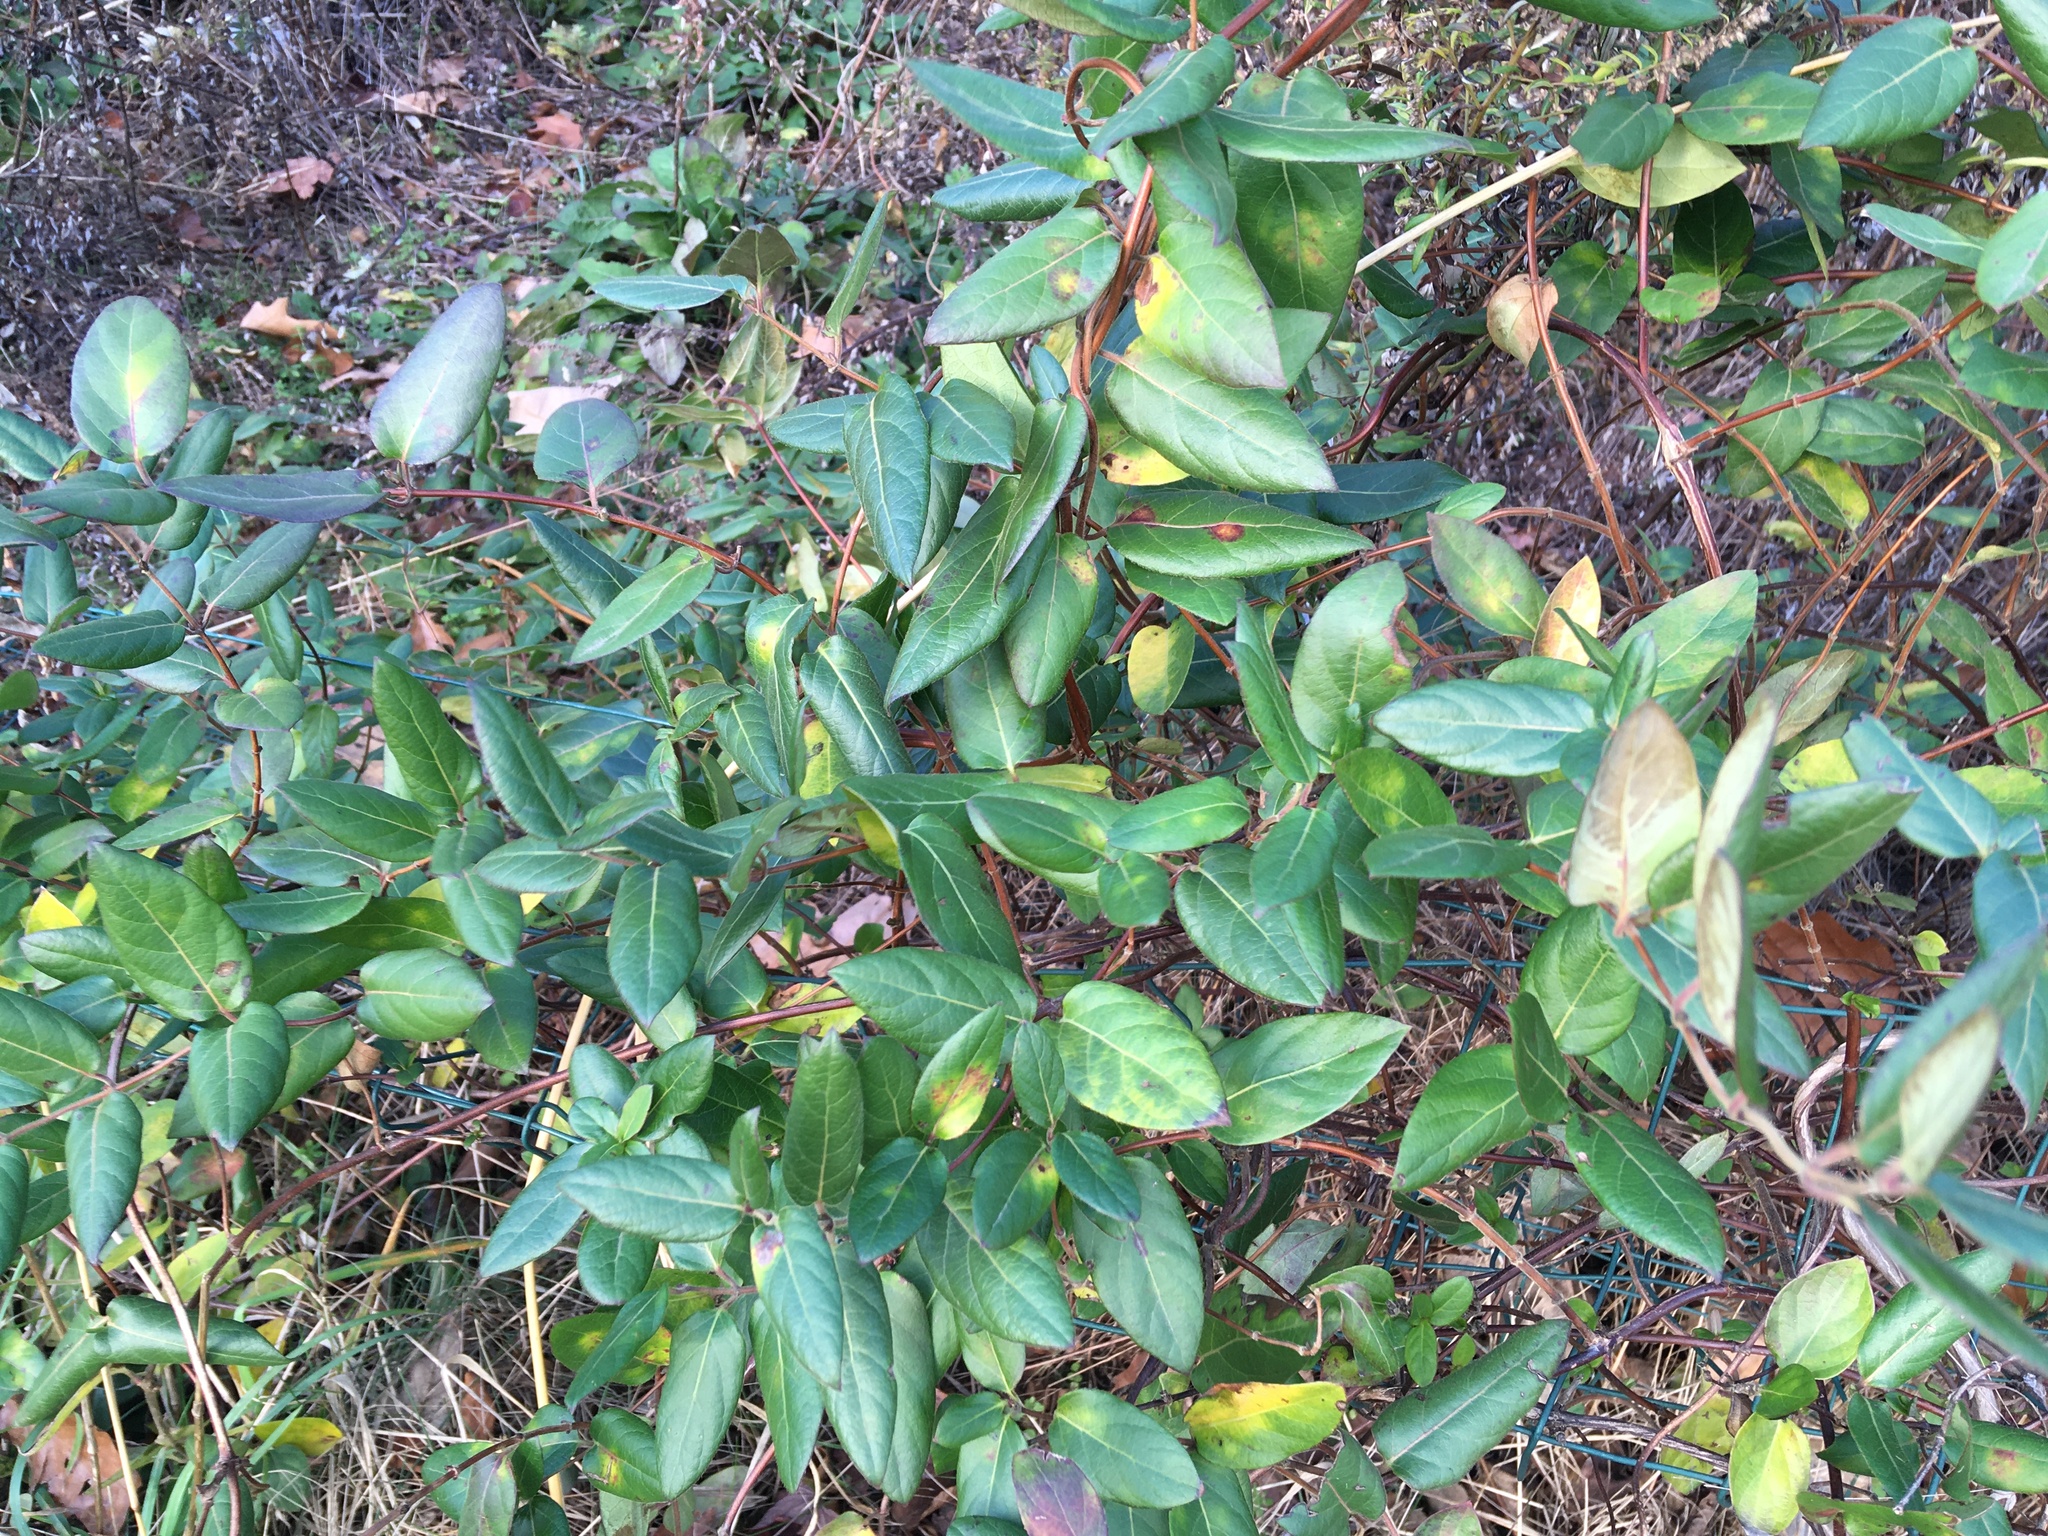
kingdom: Plantae
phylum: Tracheophyta
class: Magnoliopsida
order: Dipsacales
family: Caprifoliaceae
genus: Lonicera
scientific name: Lonicera japonica
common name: Japanese honeysuckle
